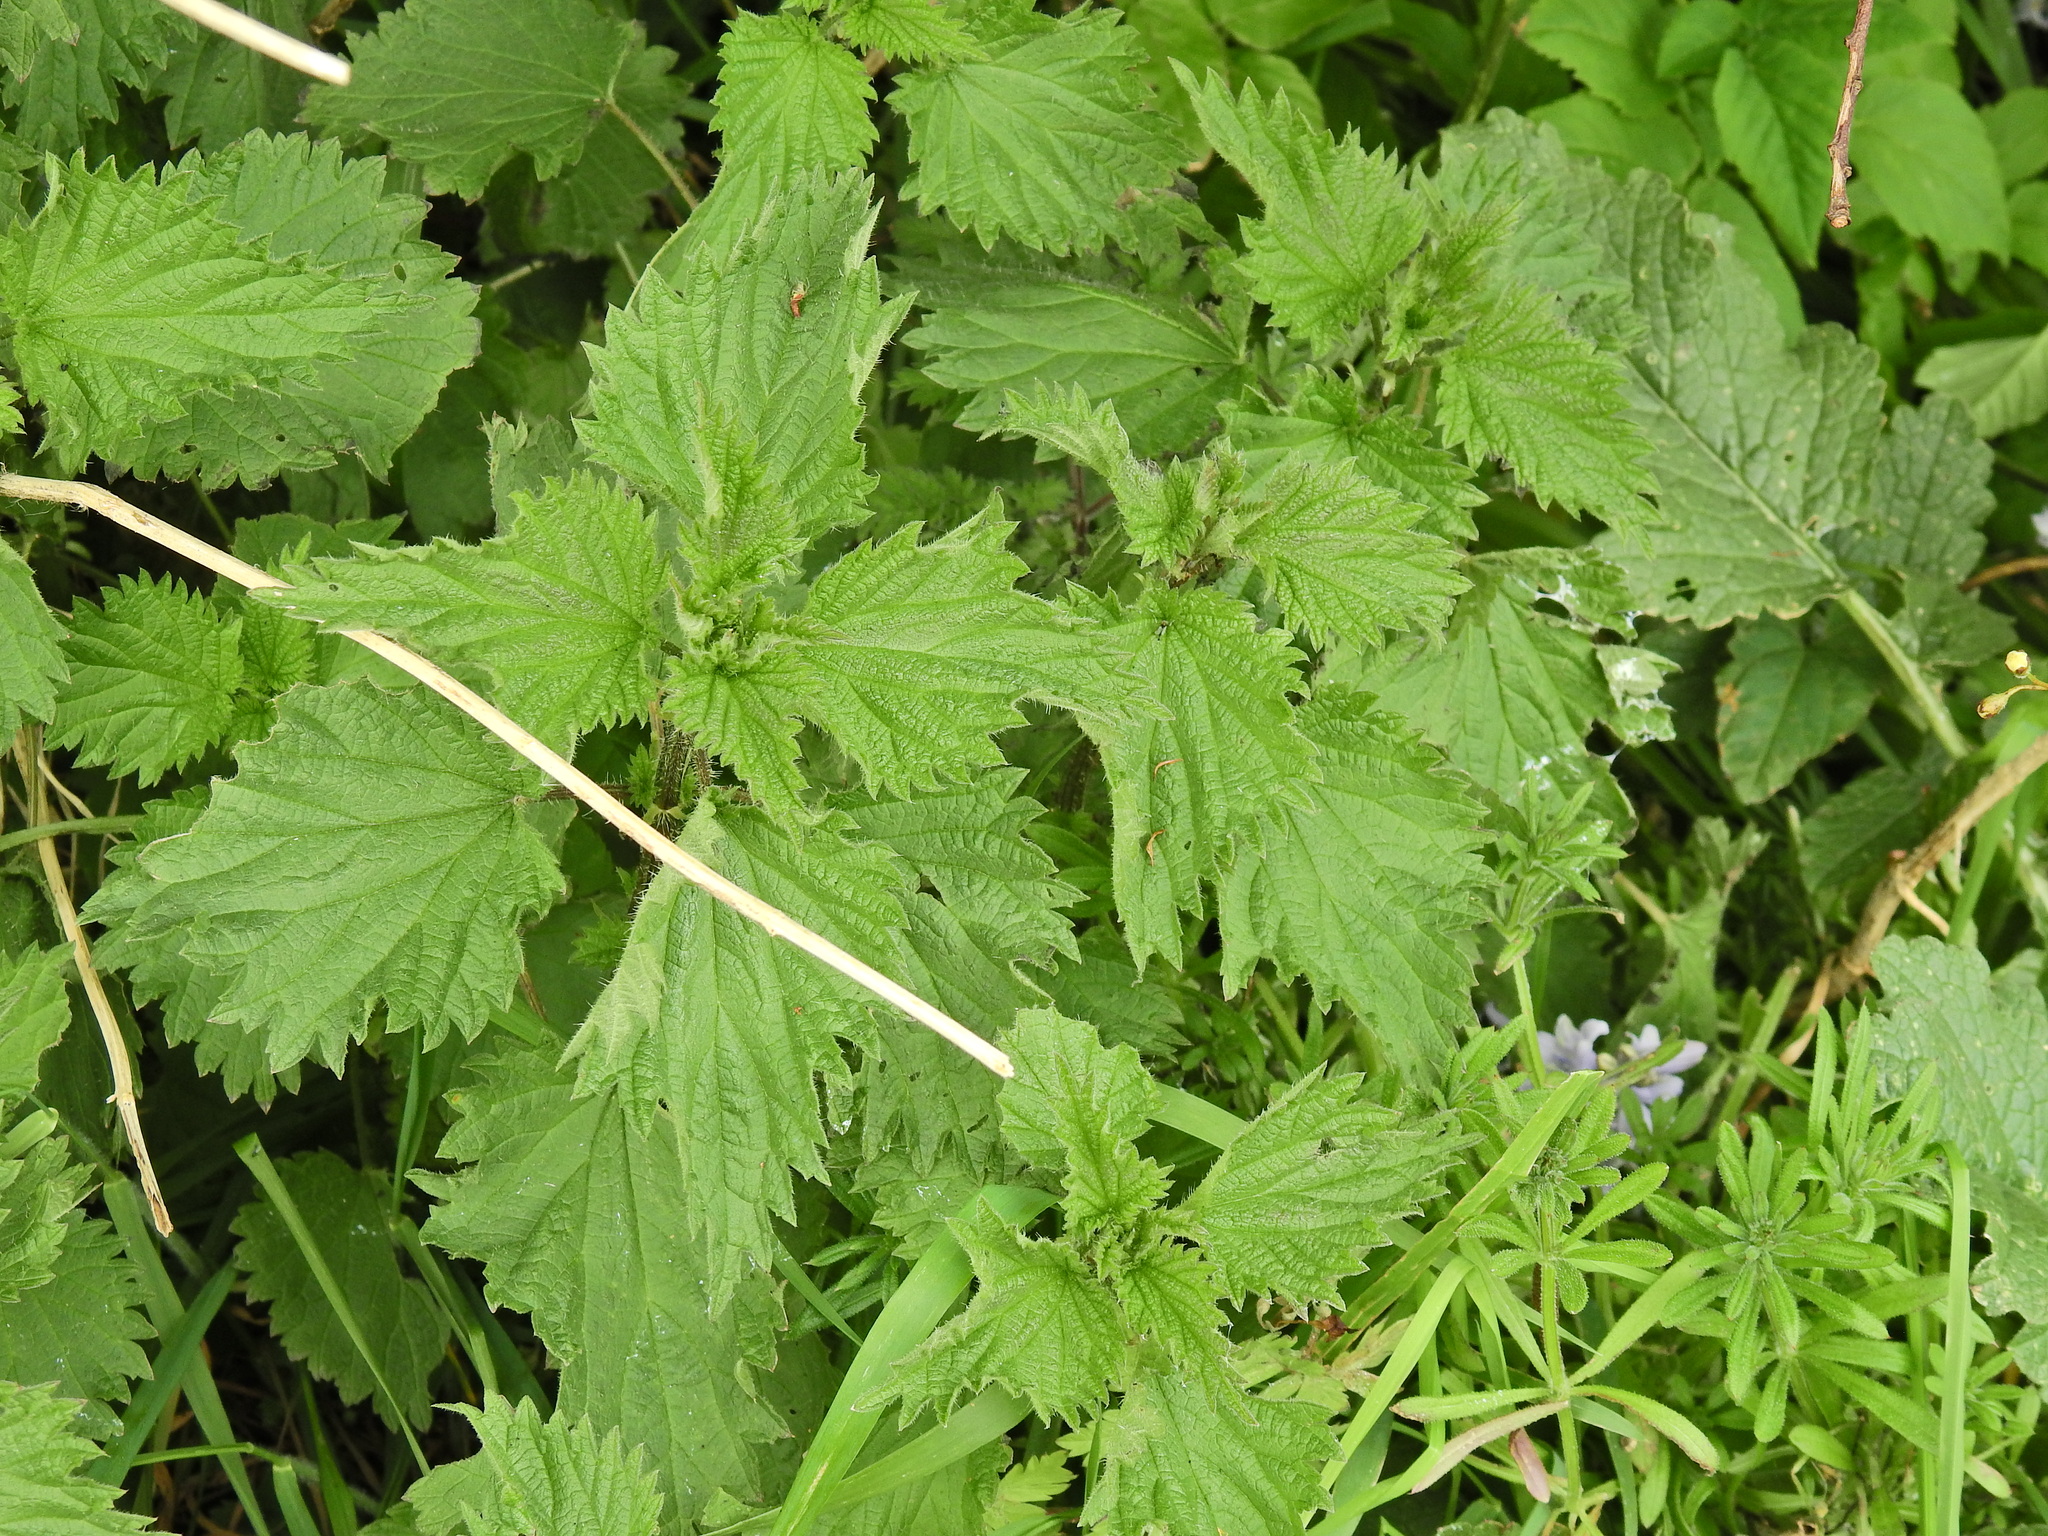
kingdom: Plantae
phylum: Tracheophyta
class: Magnoliopsida
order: Rosales
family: Urticaceae
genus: Urtica
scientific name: Urtica dioica
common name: Common nettle
